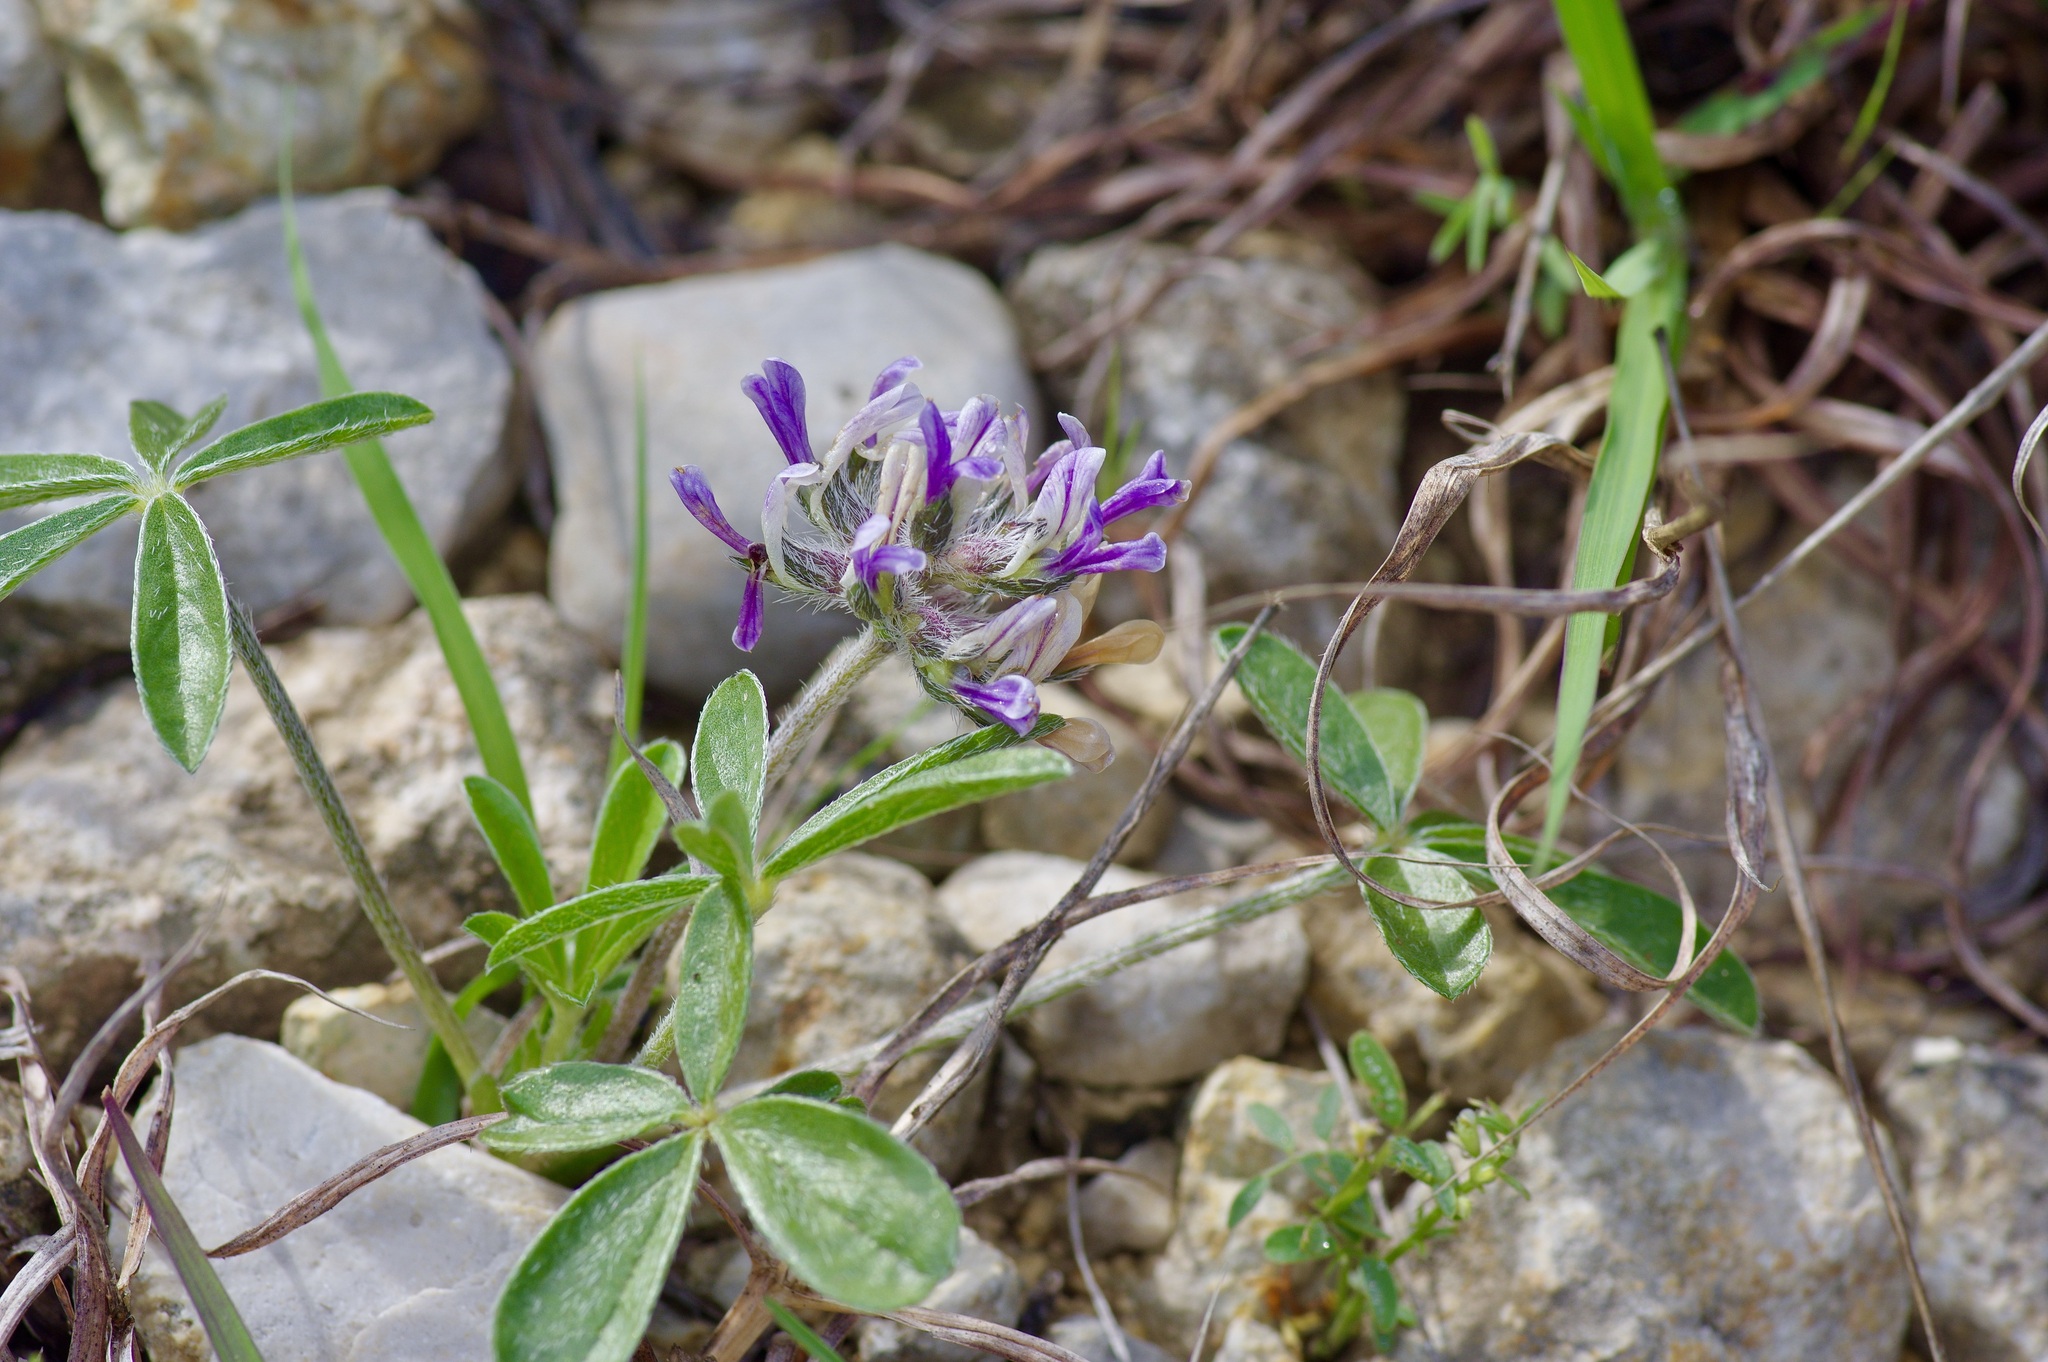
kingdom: Plantae
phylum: Tracheophyta
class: Magnoliopsida
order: Fabales
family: Fabaceae
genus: Pediomelum
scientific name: Pediomelum hypogaeum
